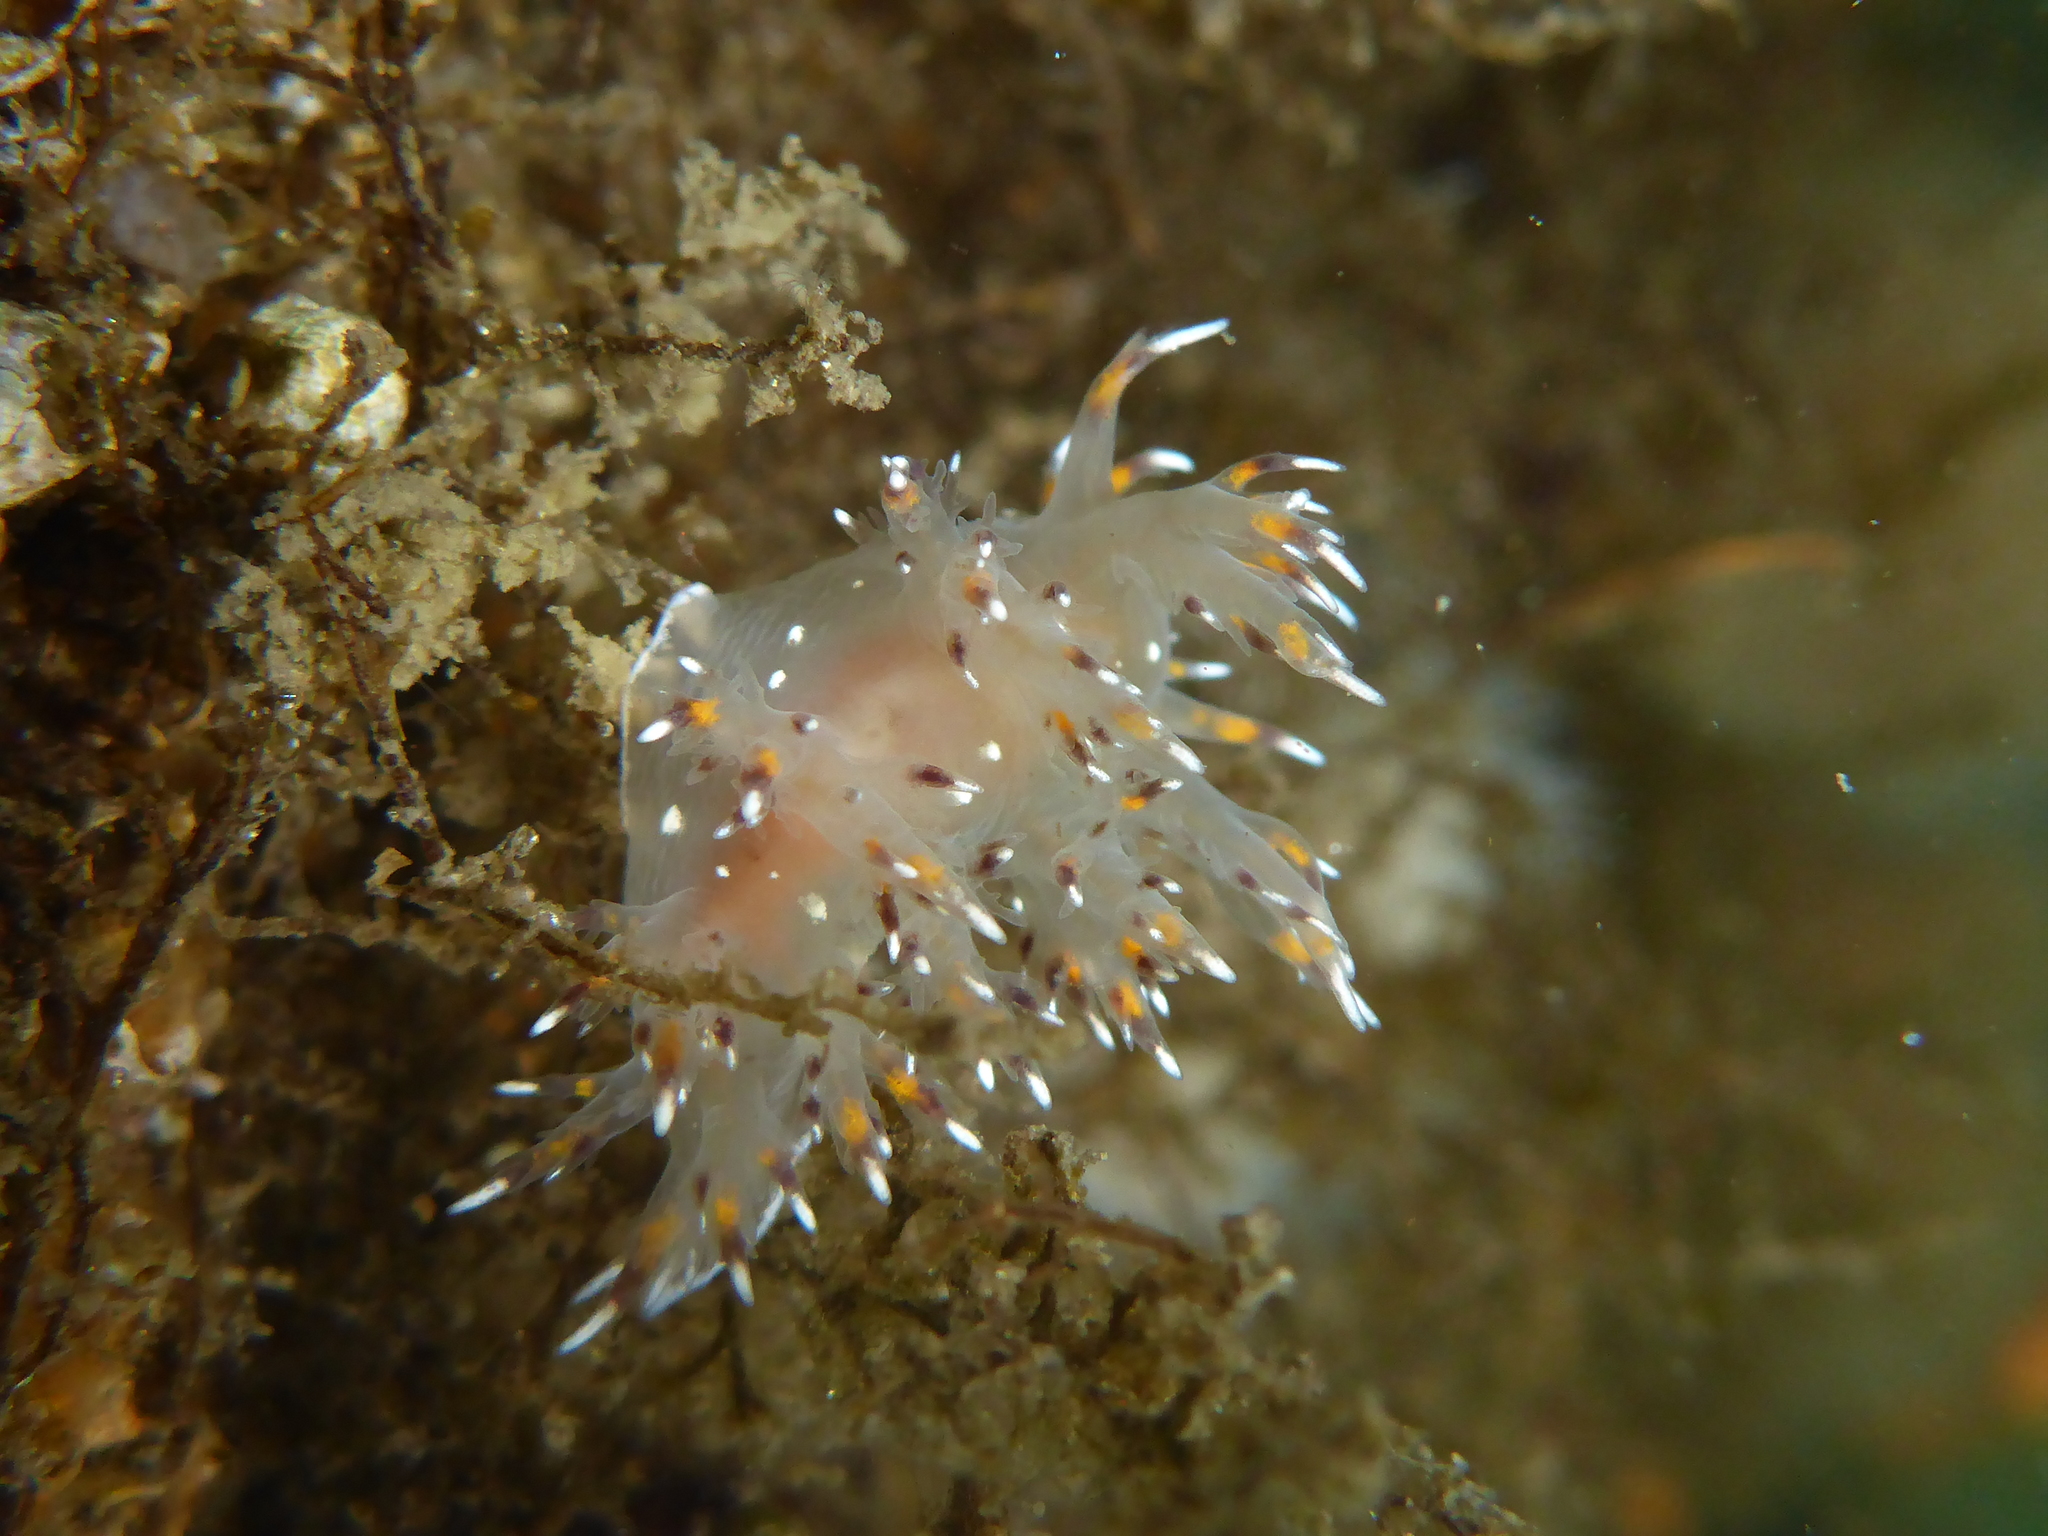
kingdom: Animalia
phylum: Mollusca
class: Gastropoda
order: Nudibranchia
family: Dendronotidae
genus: Dendronotus
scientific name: Dendronotus iris
